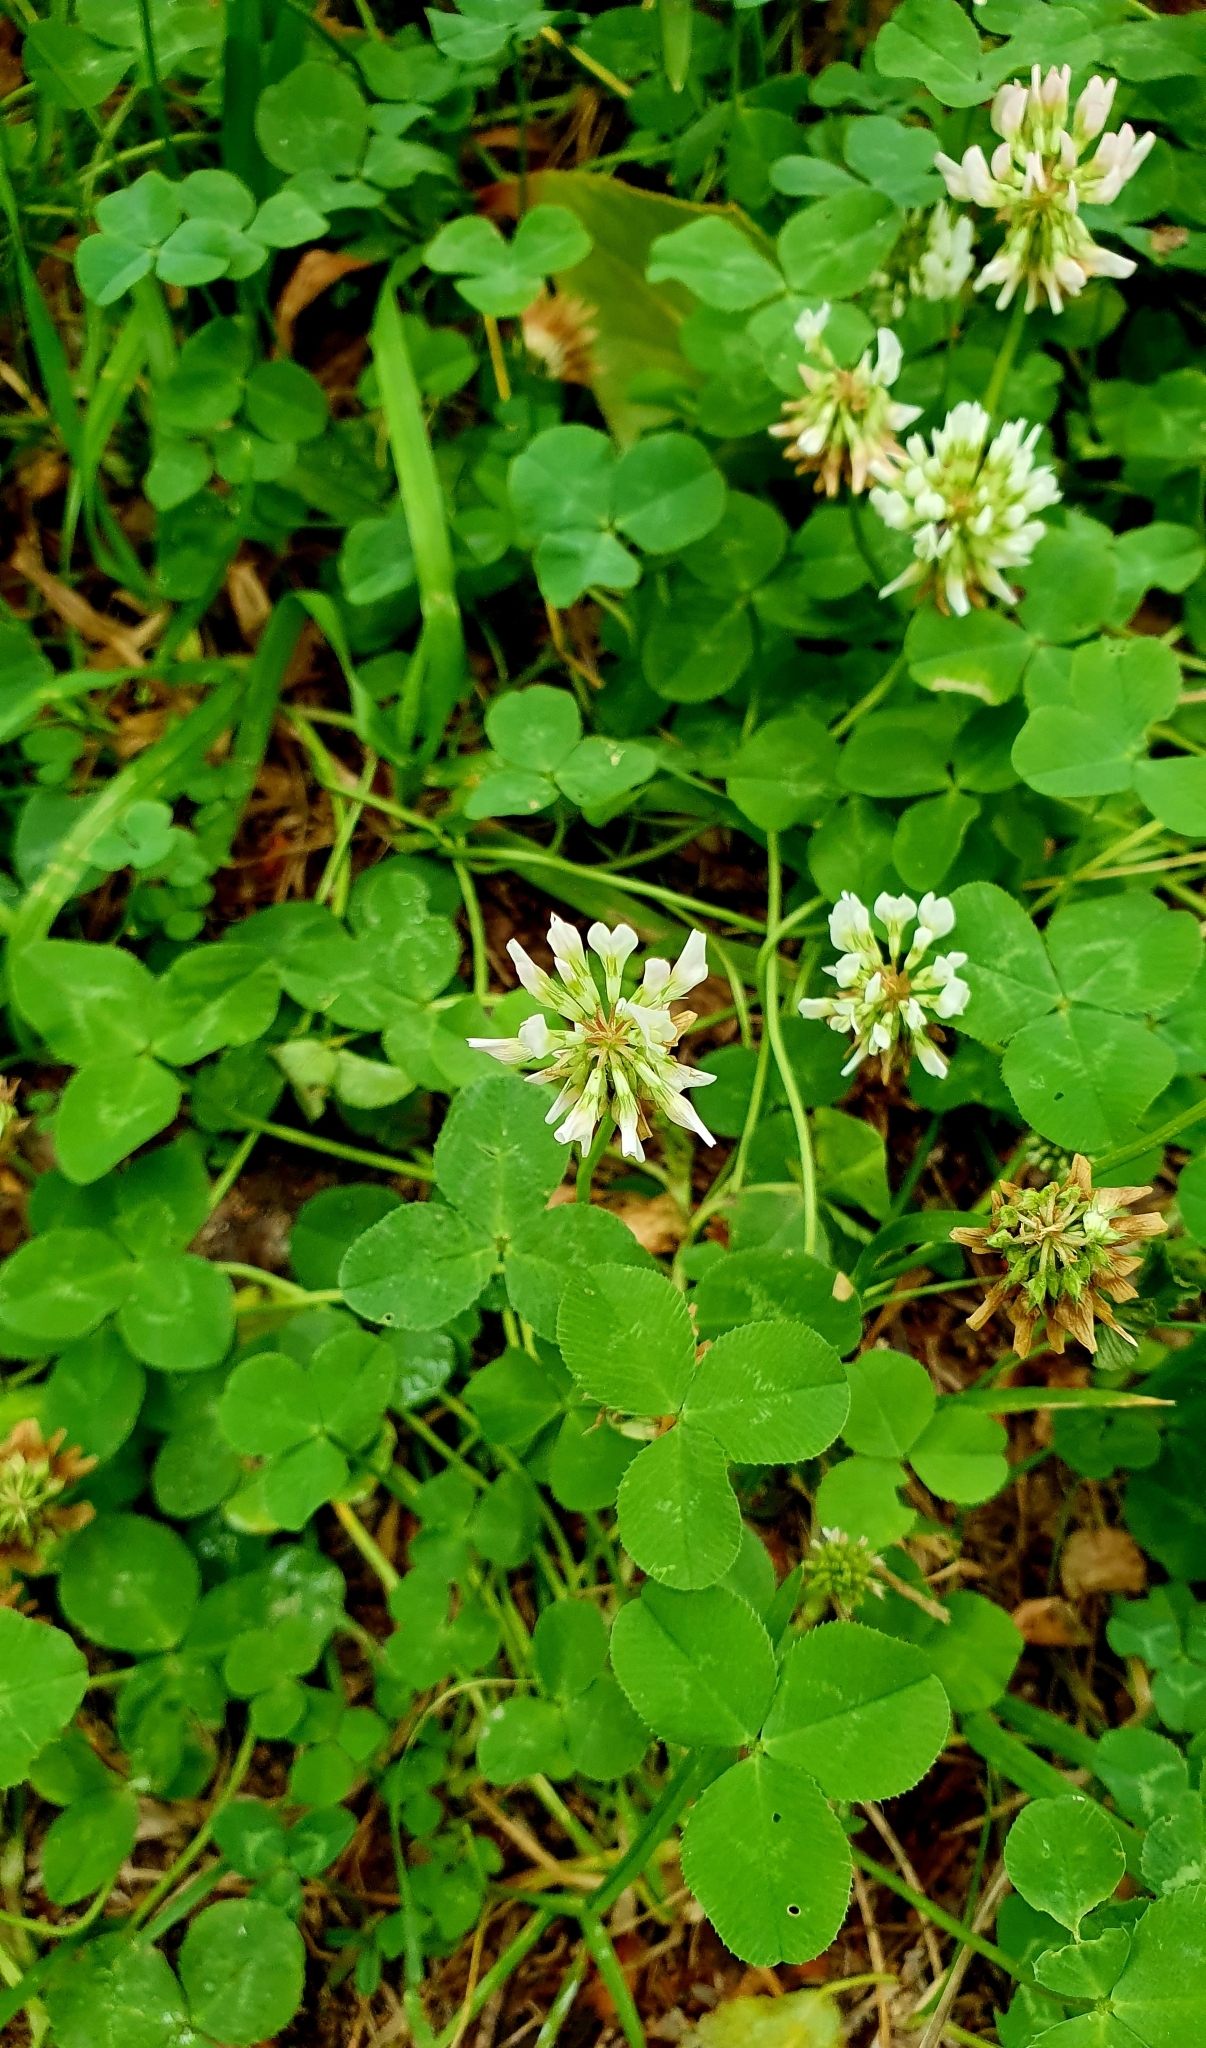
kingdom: Plantae
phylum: Tracheophyta
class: Magnoliopsida
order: Fabales
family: Fabaceae
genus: Trifolium
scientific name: Trifolium repens
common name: White clover
